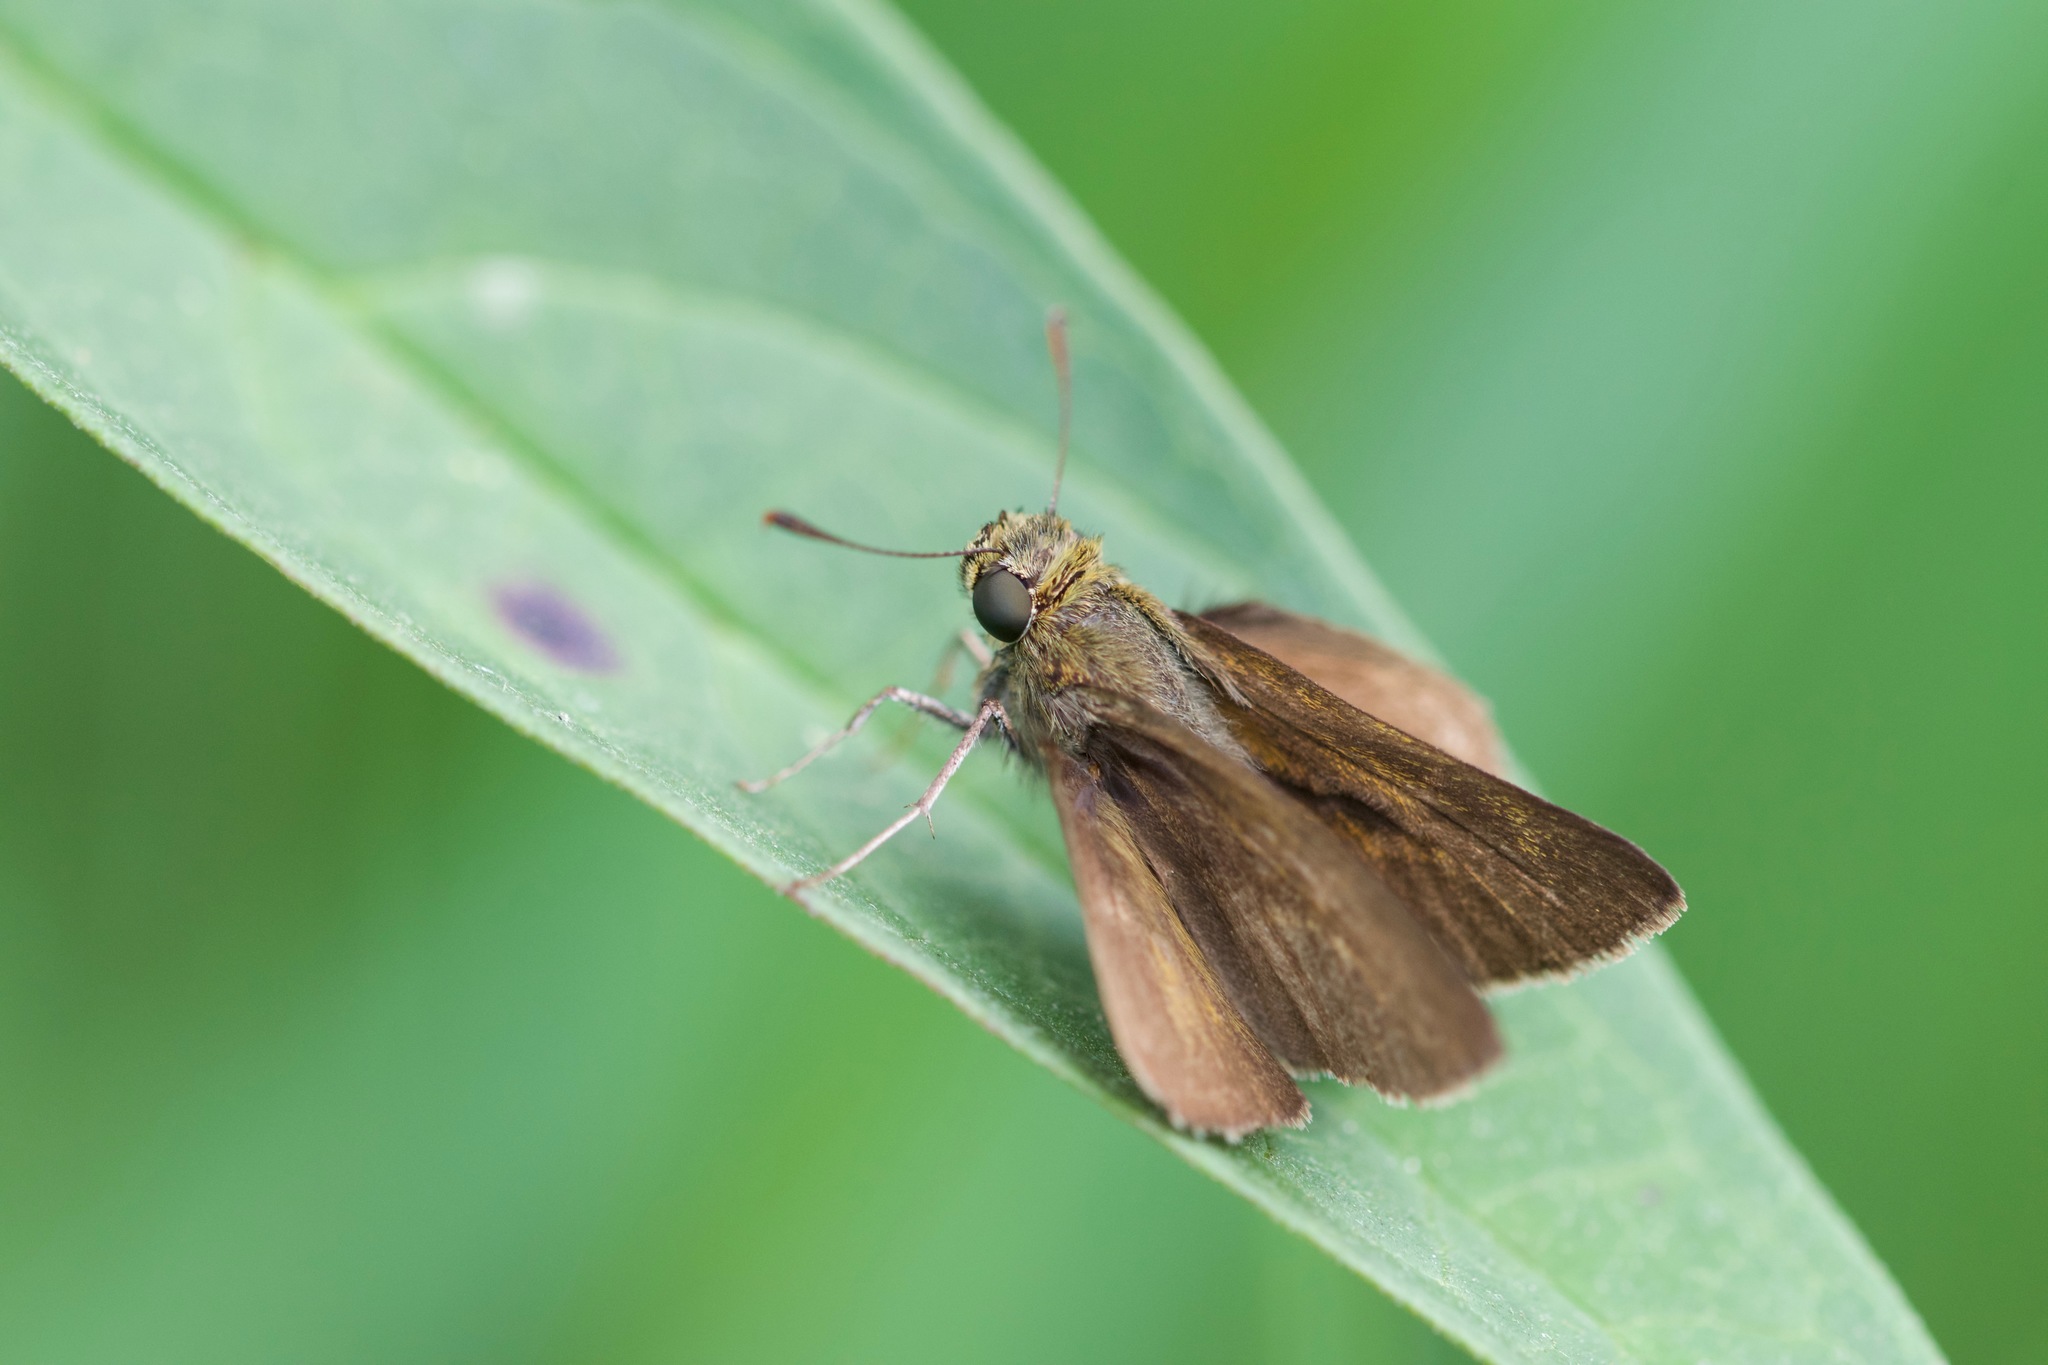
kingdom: Animalia
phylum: Arthropoda
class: Insecta
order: Lepidoptera
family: Hesperiidae
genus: Euphyes
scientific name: Euphyes vestris
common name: Dun skipper
